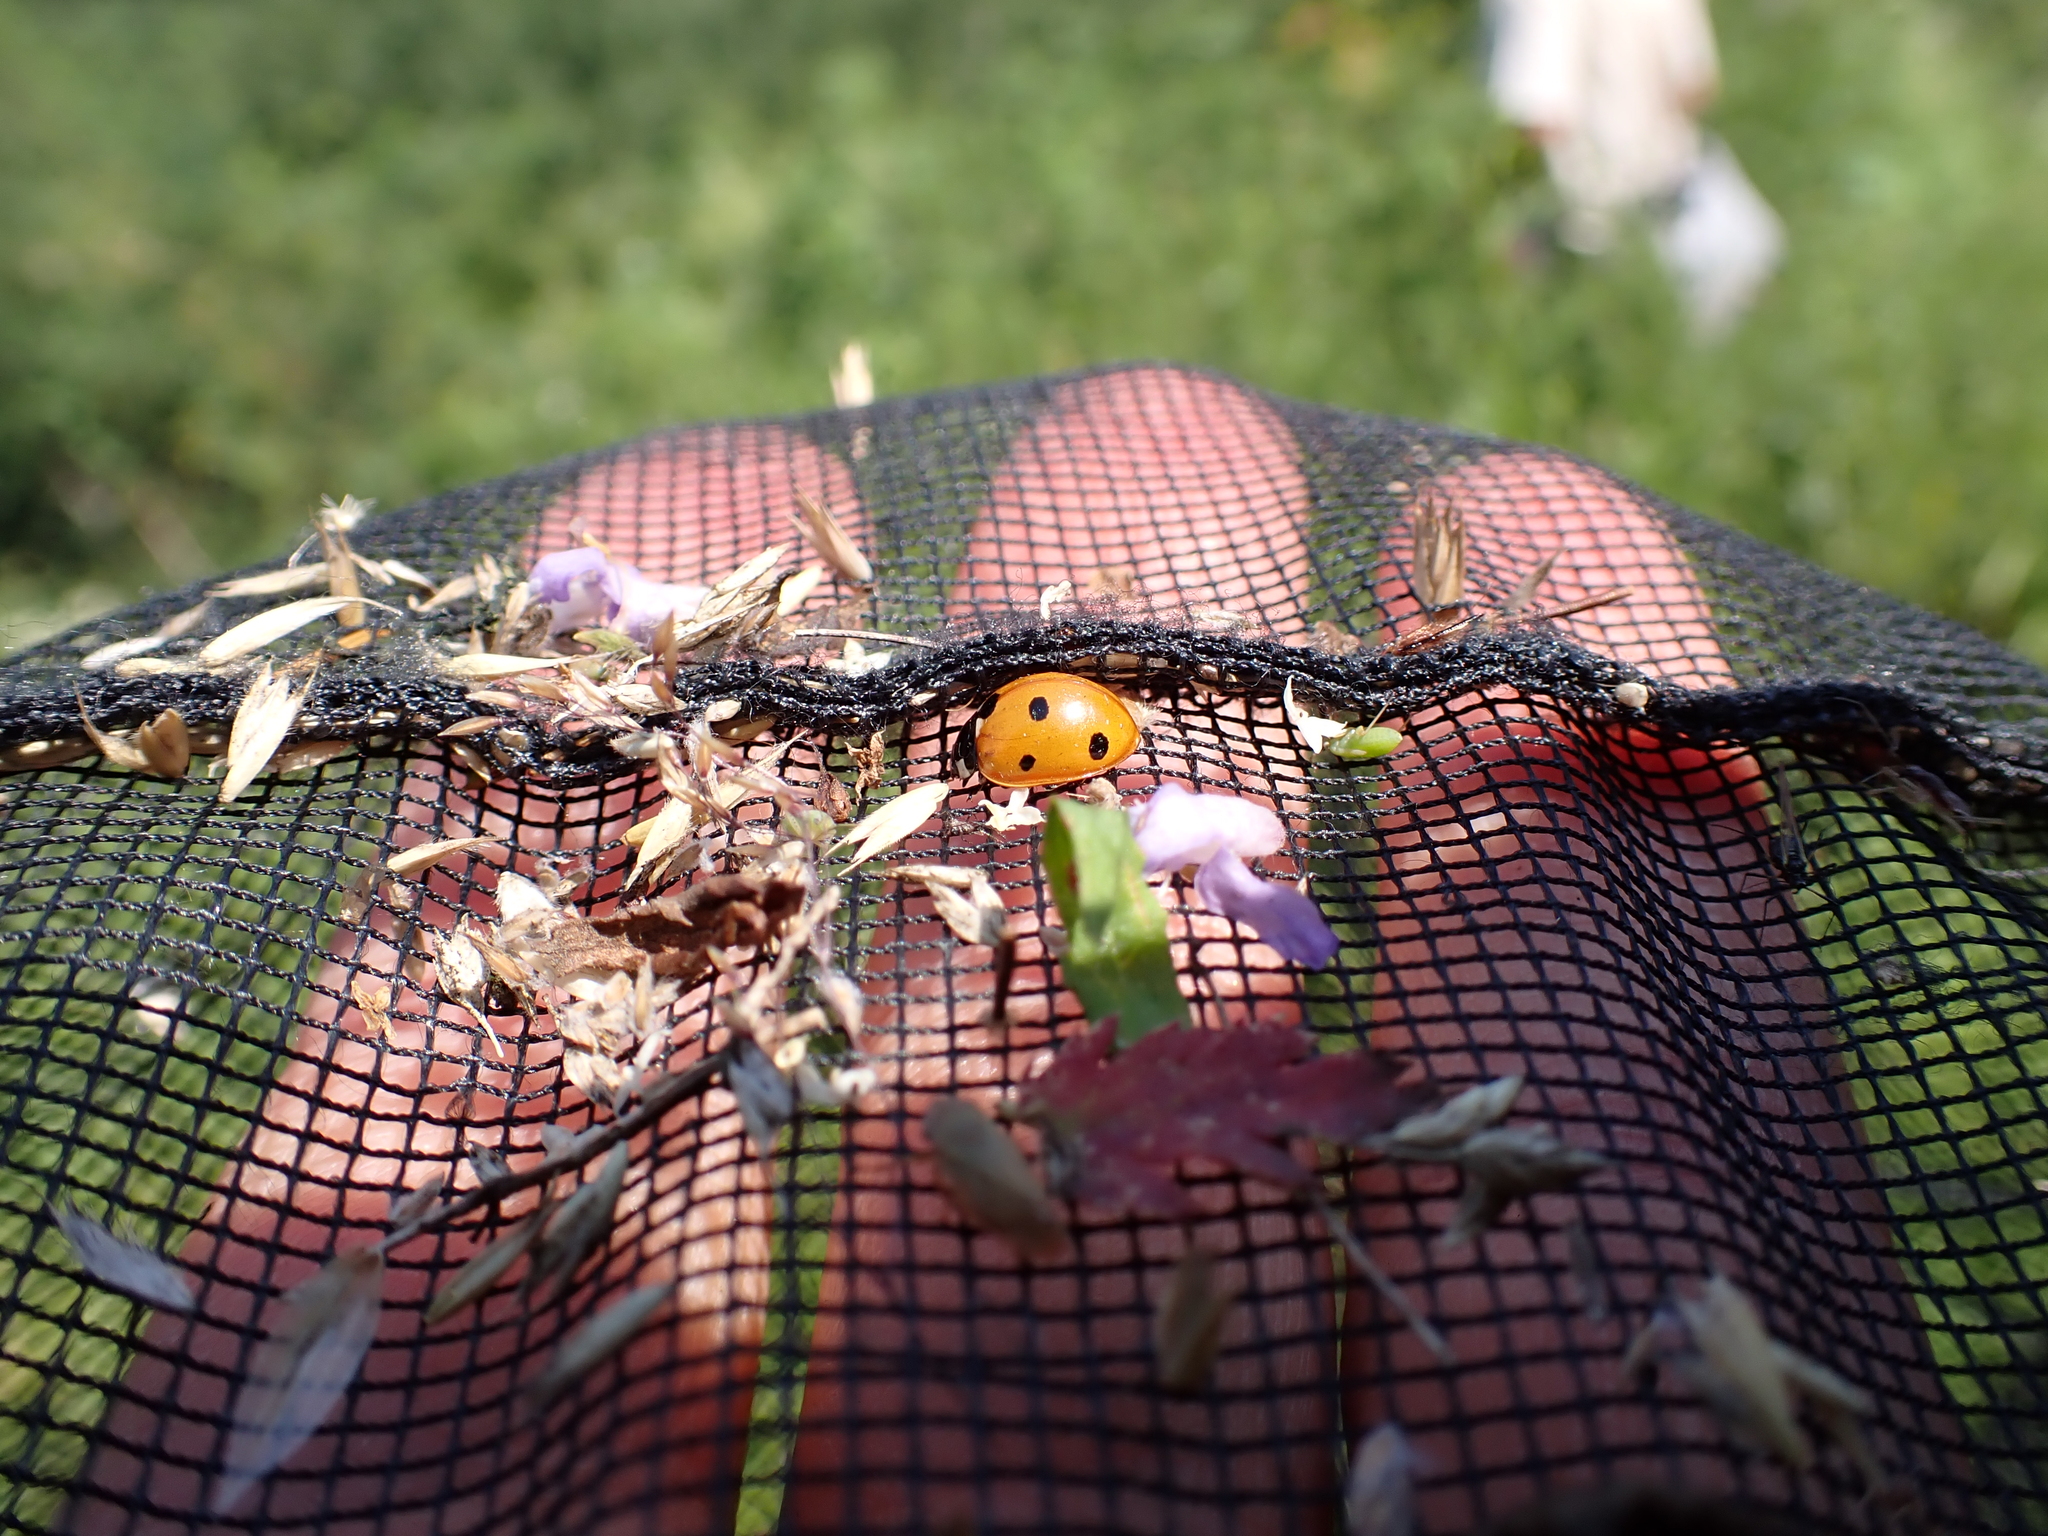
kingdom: Animalia
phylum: Arthropoda
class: Insecta
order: Coleoptera
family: Coccinellidae
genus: Coccinella
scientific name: Coccinella septempunctata
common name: Sevenspotted lady beetle
